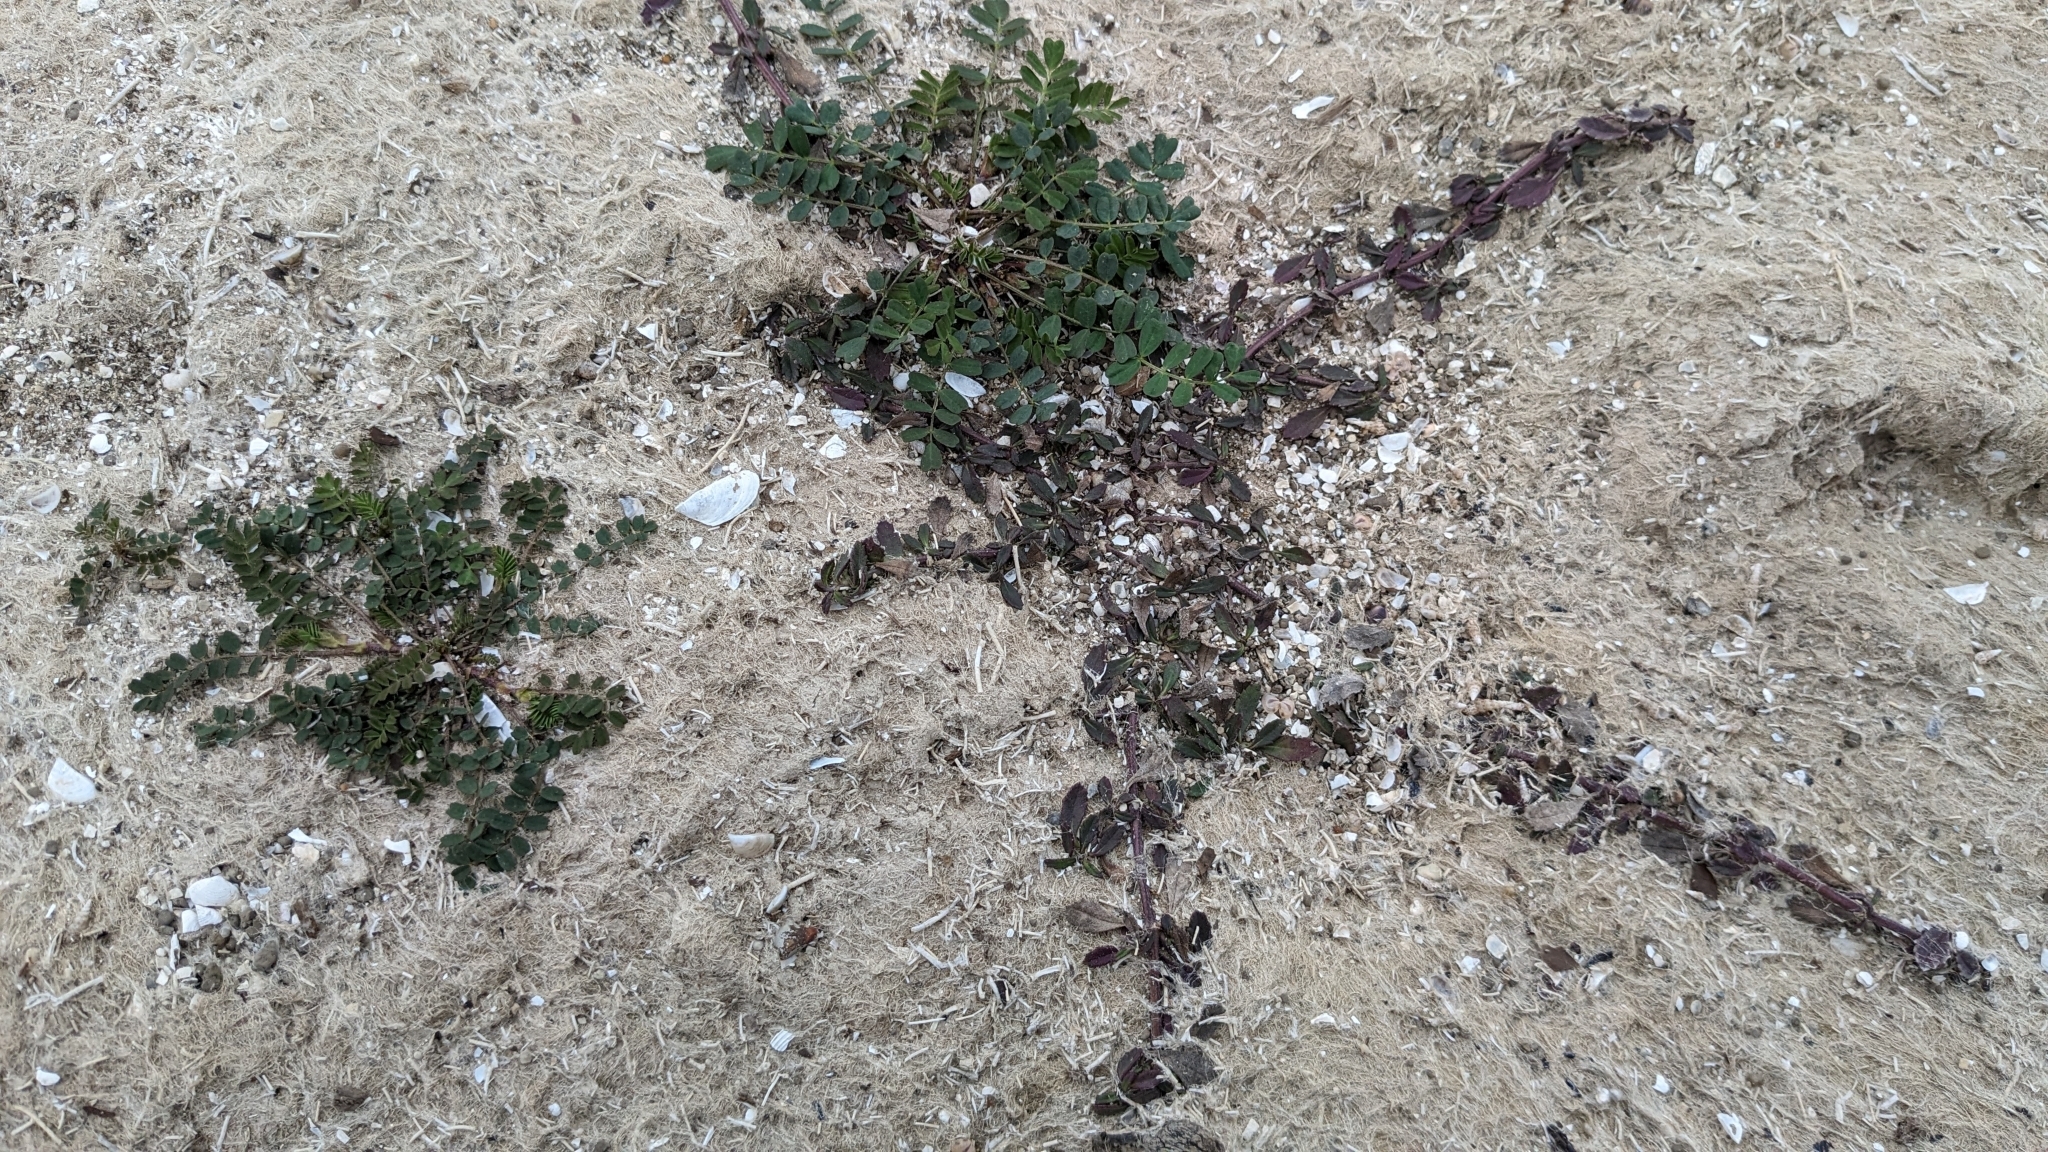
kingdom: Plantae
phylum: Tracheophyta
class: Magnoliopsida
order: Lamiales
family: Verbenaceae
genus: Phyla
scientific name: Phyla nodiflora
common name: Frogfruit
